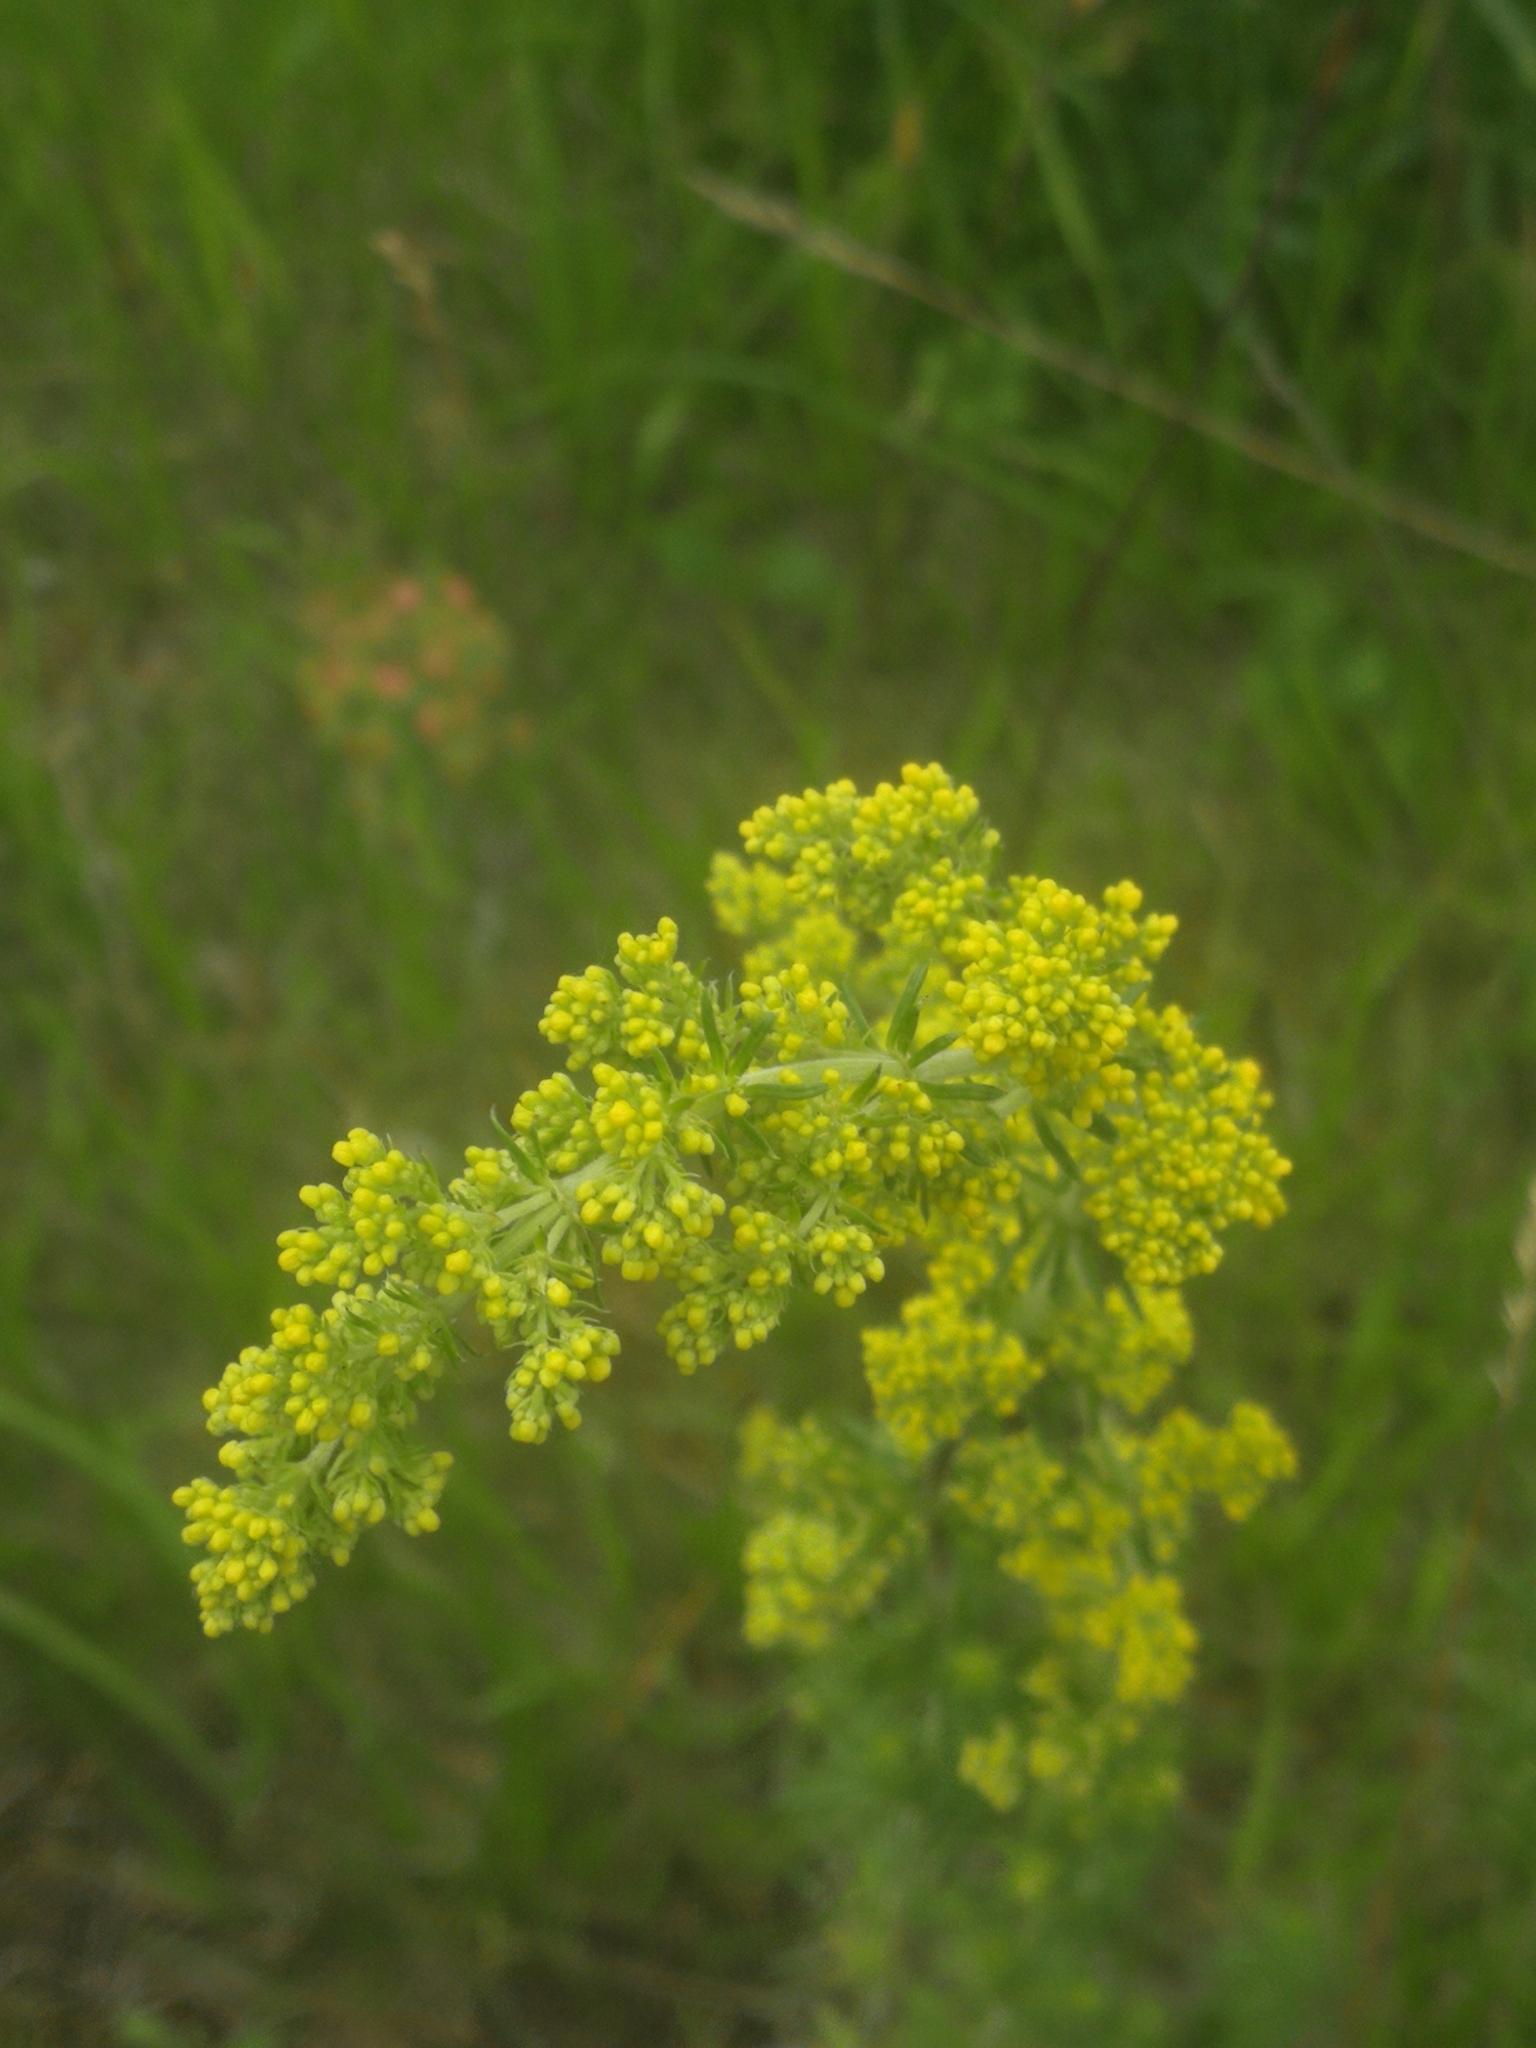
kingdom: Plantae
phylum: Tracheophyta
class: Magnoliopsida
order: Gentianales
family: Rubiaceae
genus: Galium
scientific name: Galium verum
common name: Lady's bedstraw
